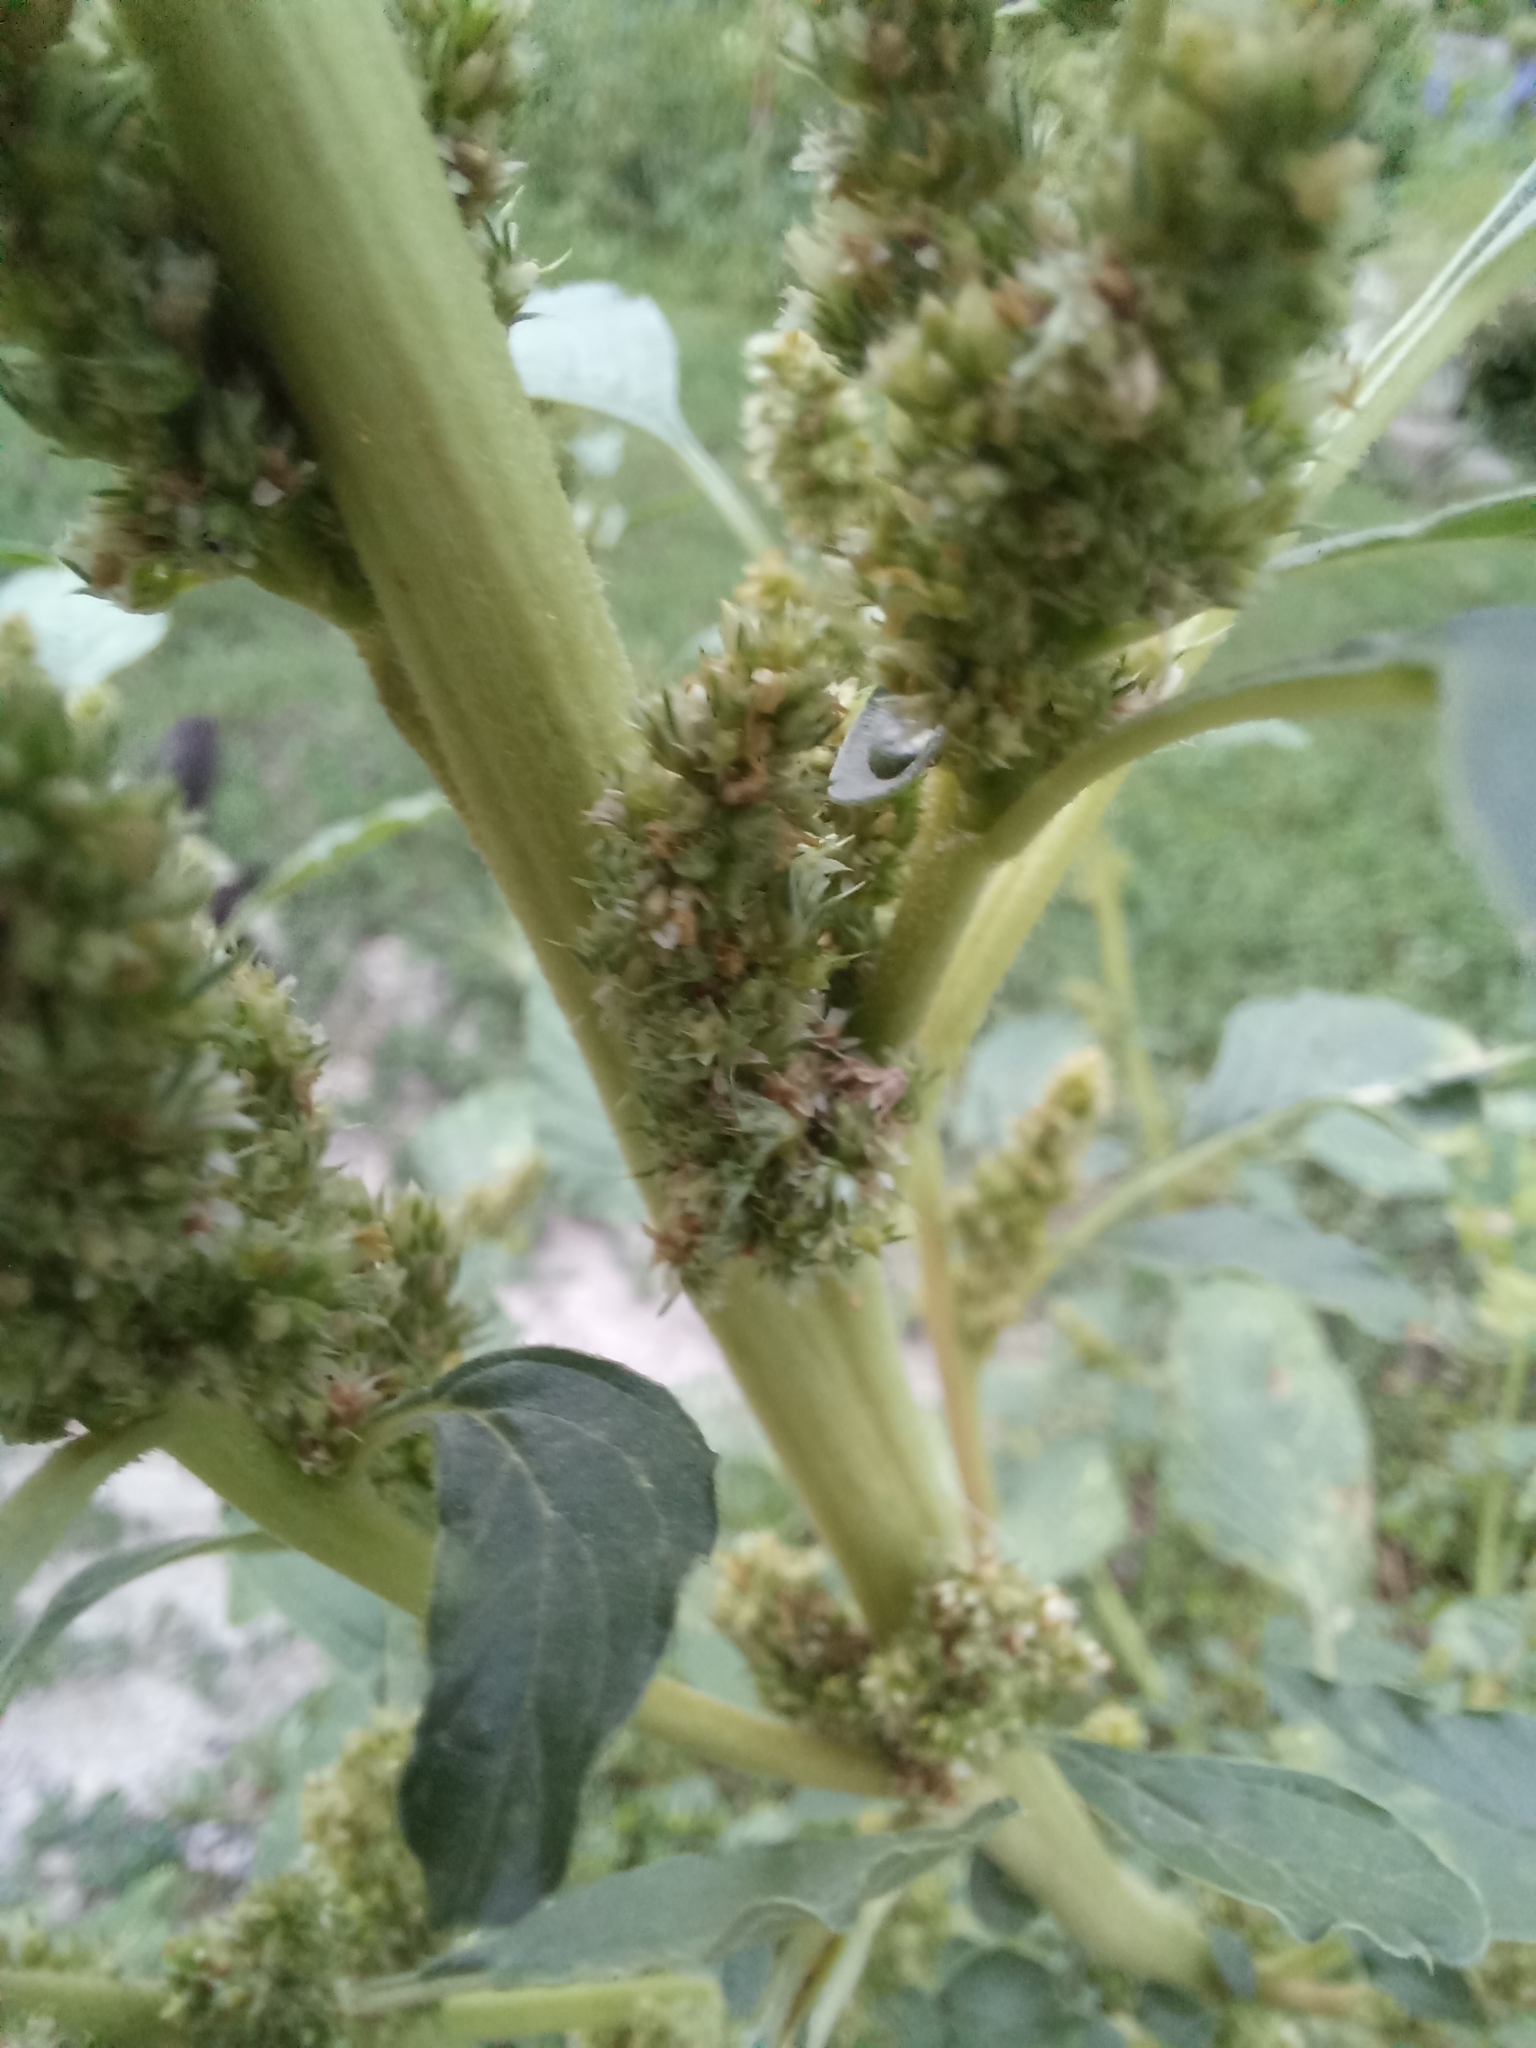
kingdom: Plantae
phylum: Tracheophyta
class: Magnoliopsida
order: Caryophyllales
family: Amaranthaceae
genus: Amaranthus
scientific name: Amaranthus retroflexus
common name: Redroot amaranth
